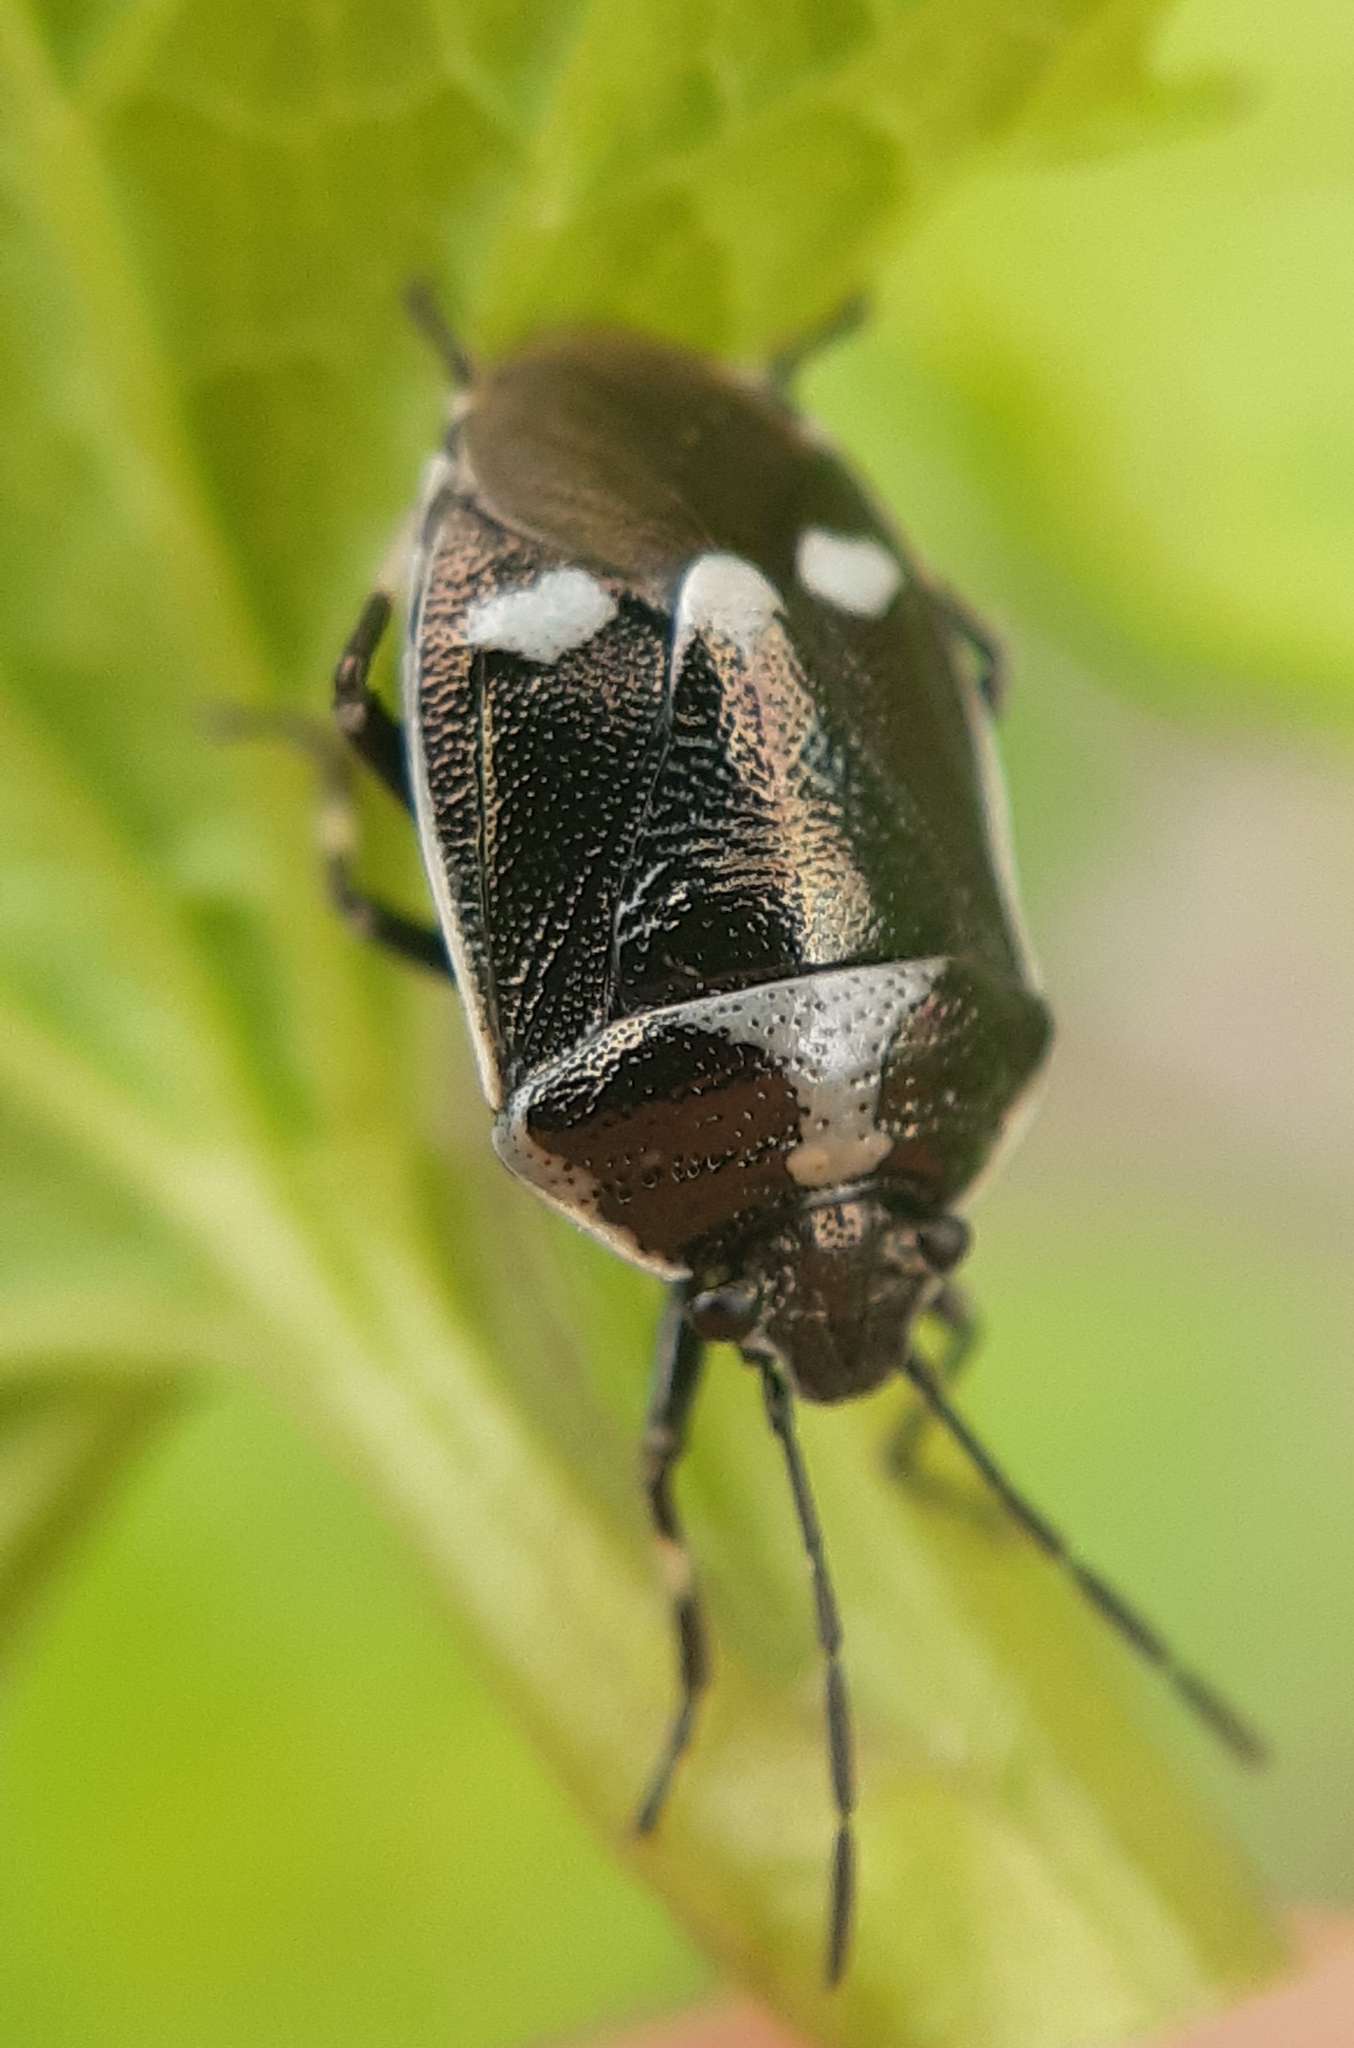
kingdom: Animalia
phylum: Arthropoda
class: Insecta
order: Hemiptera
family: Pentatomidae
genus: Eurydema
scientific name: Eurydema oleracea
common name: Cabbage bug
